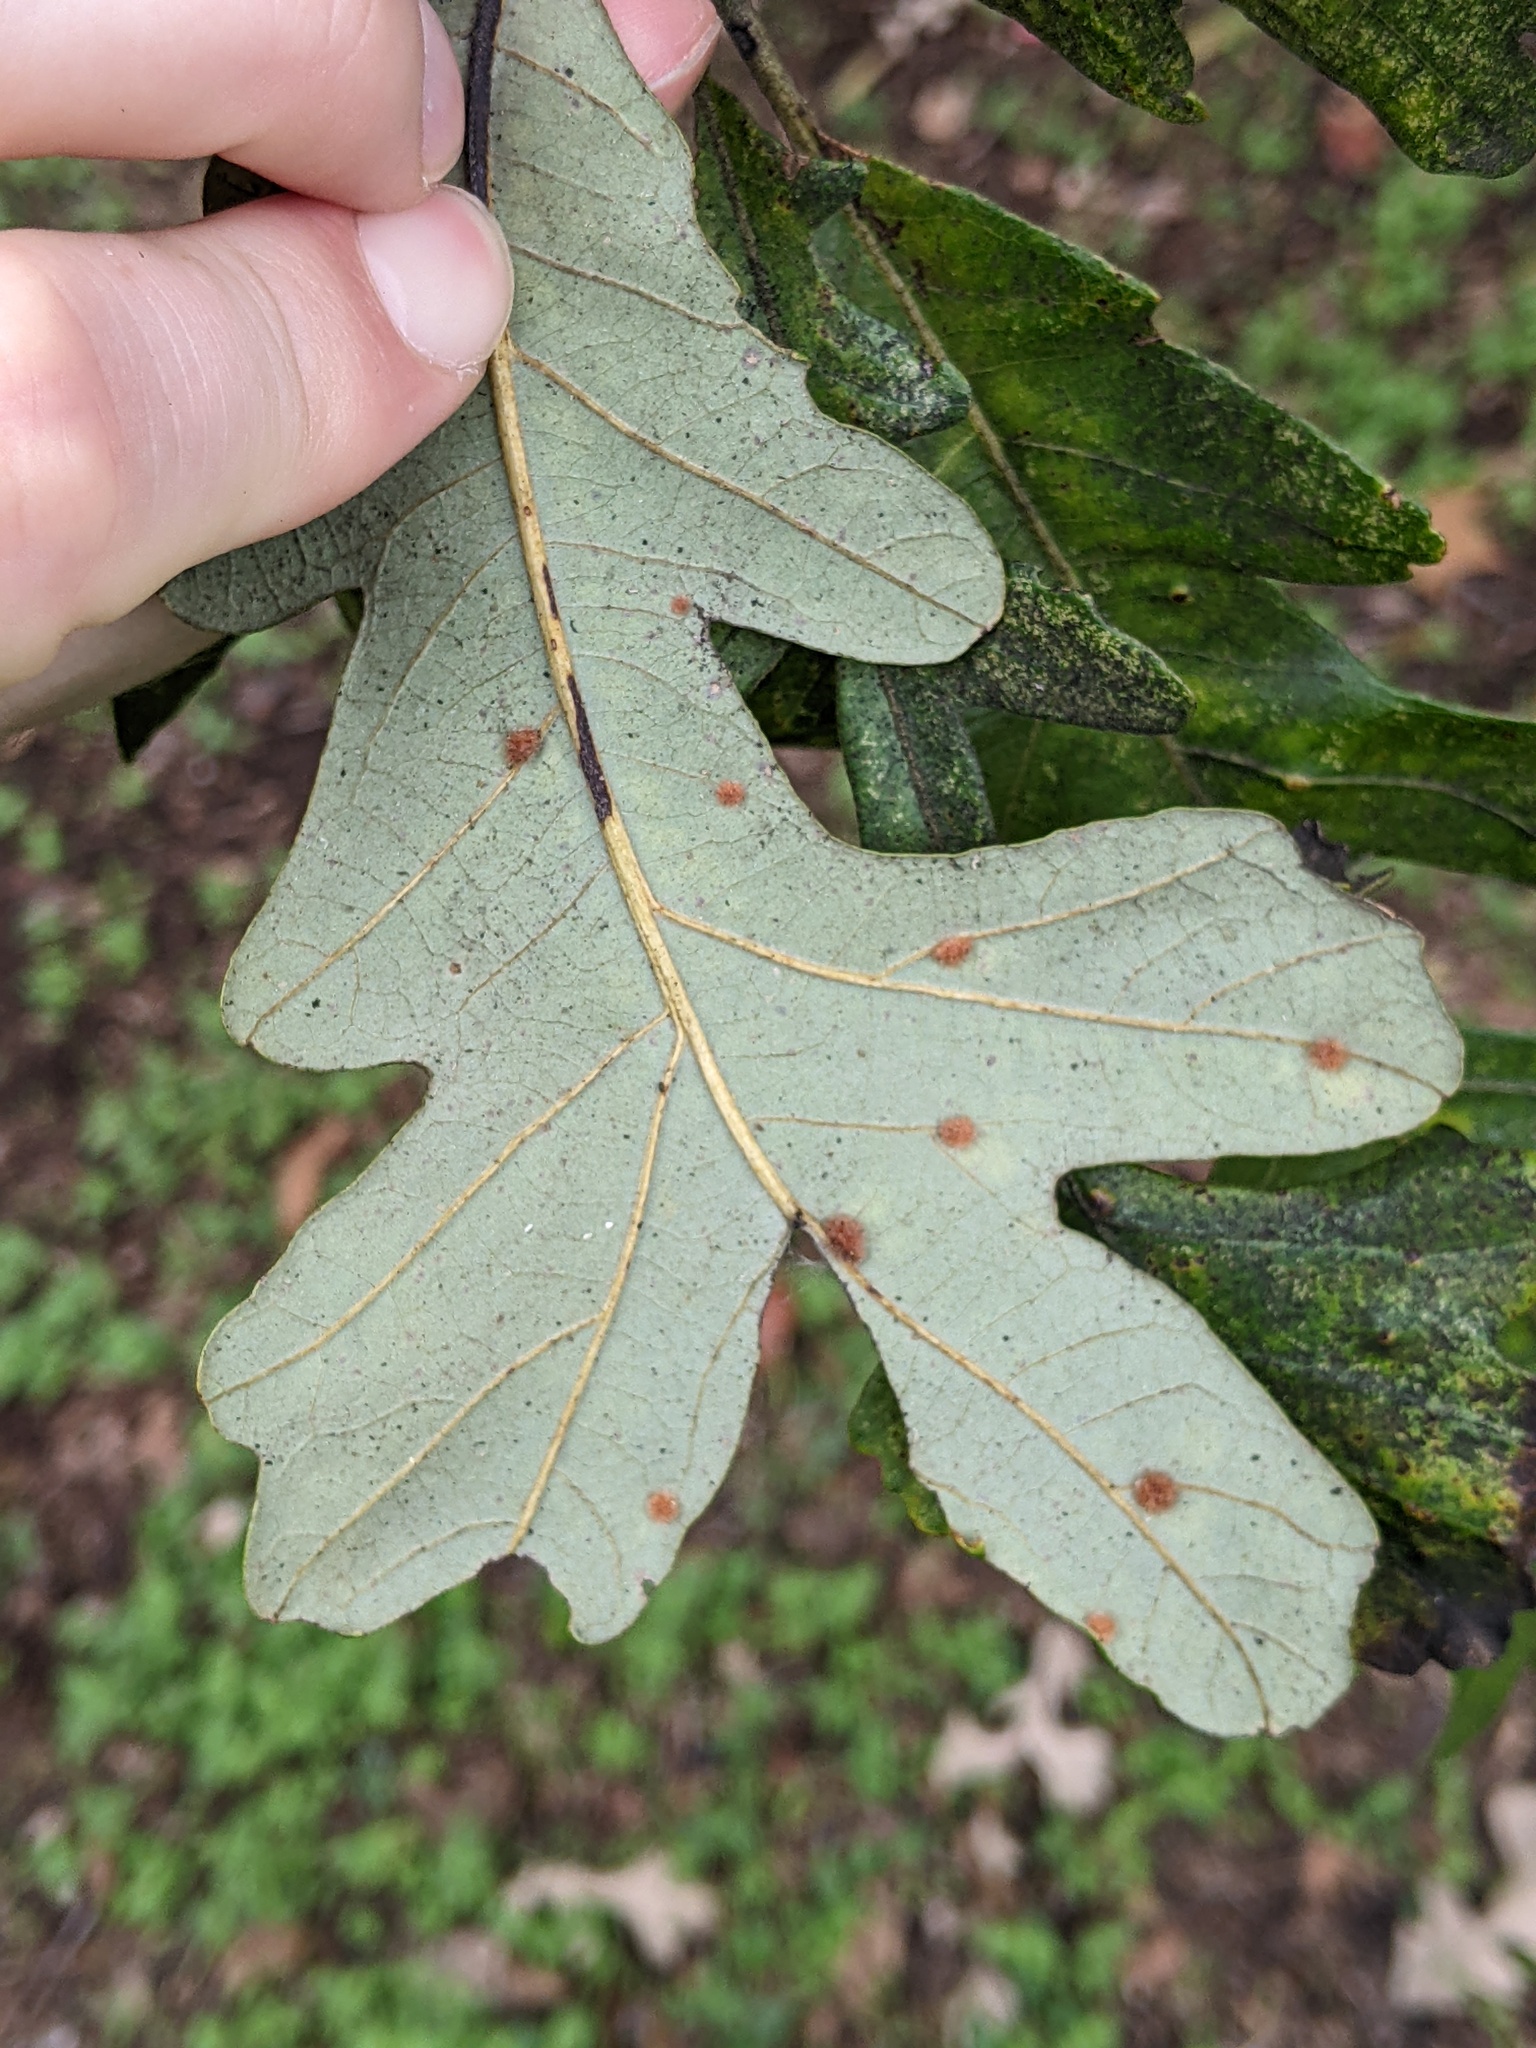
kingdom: Animalia
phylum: Arthropoda
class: Insecta
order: Hymenoptera
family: Cynipidae
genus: Neuroterus
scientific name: Neuroterus quercusverrucarum
